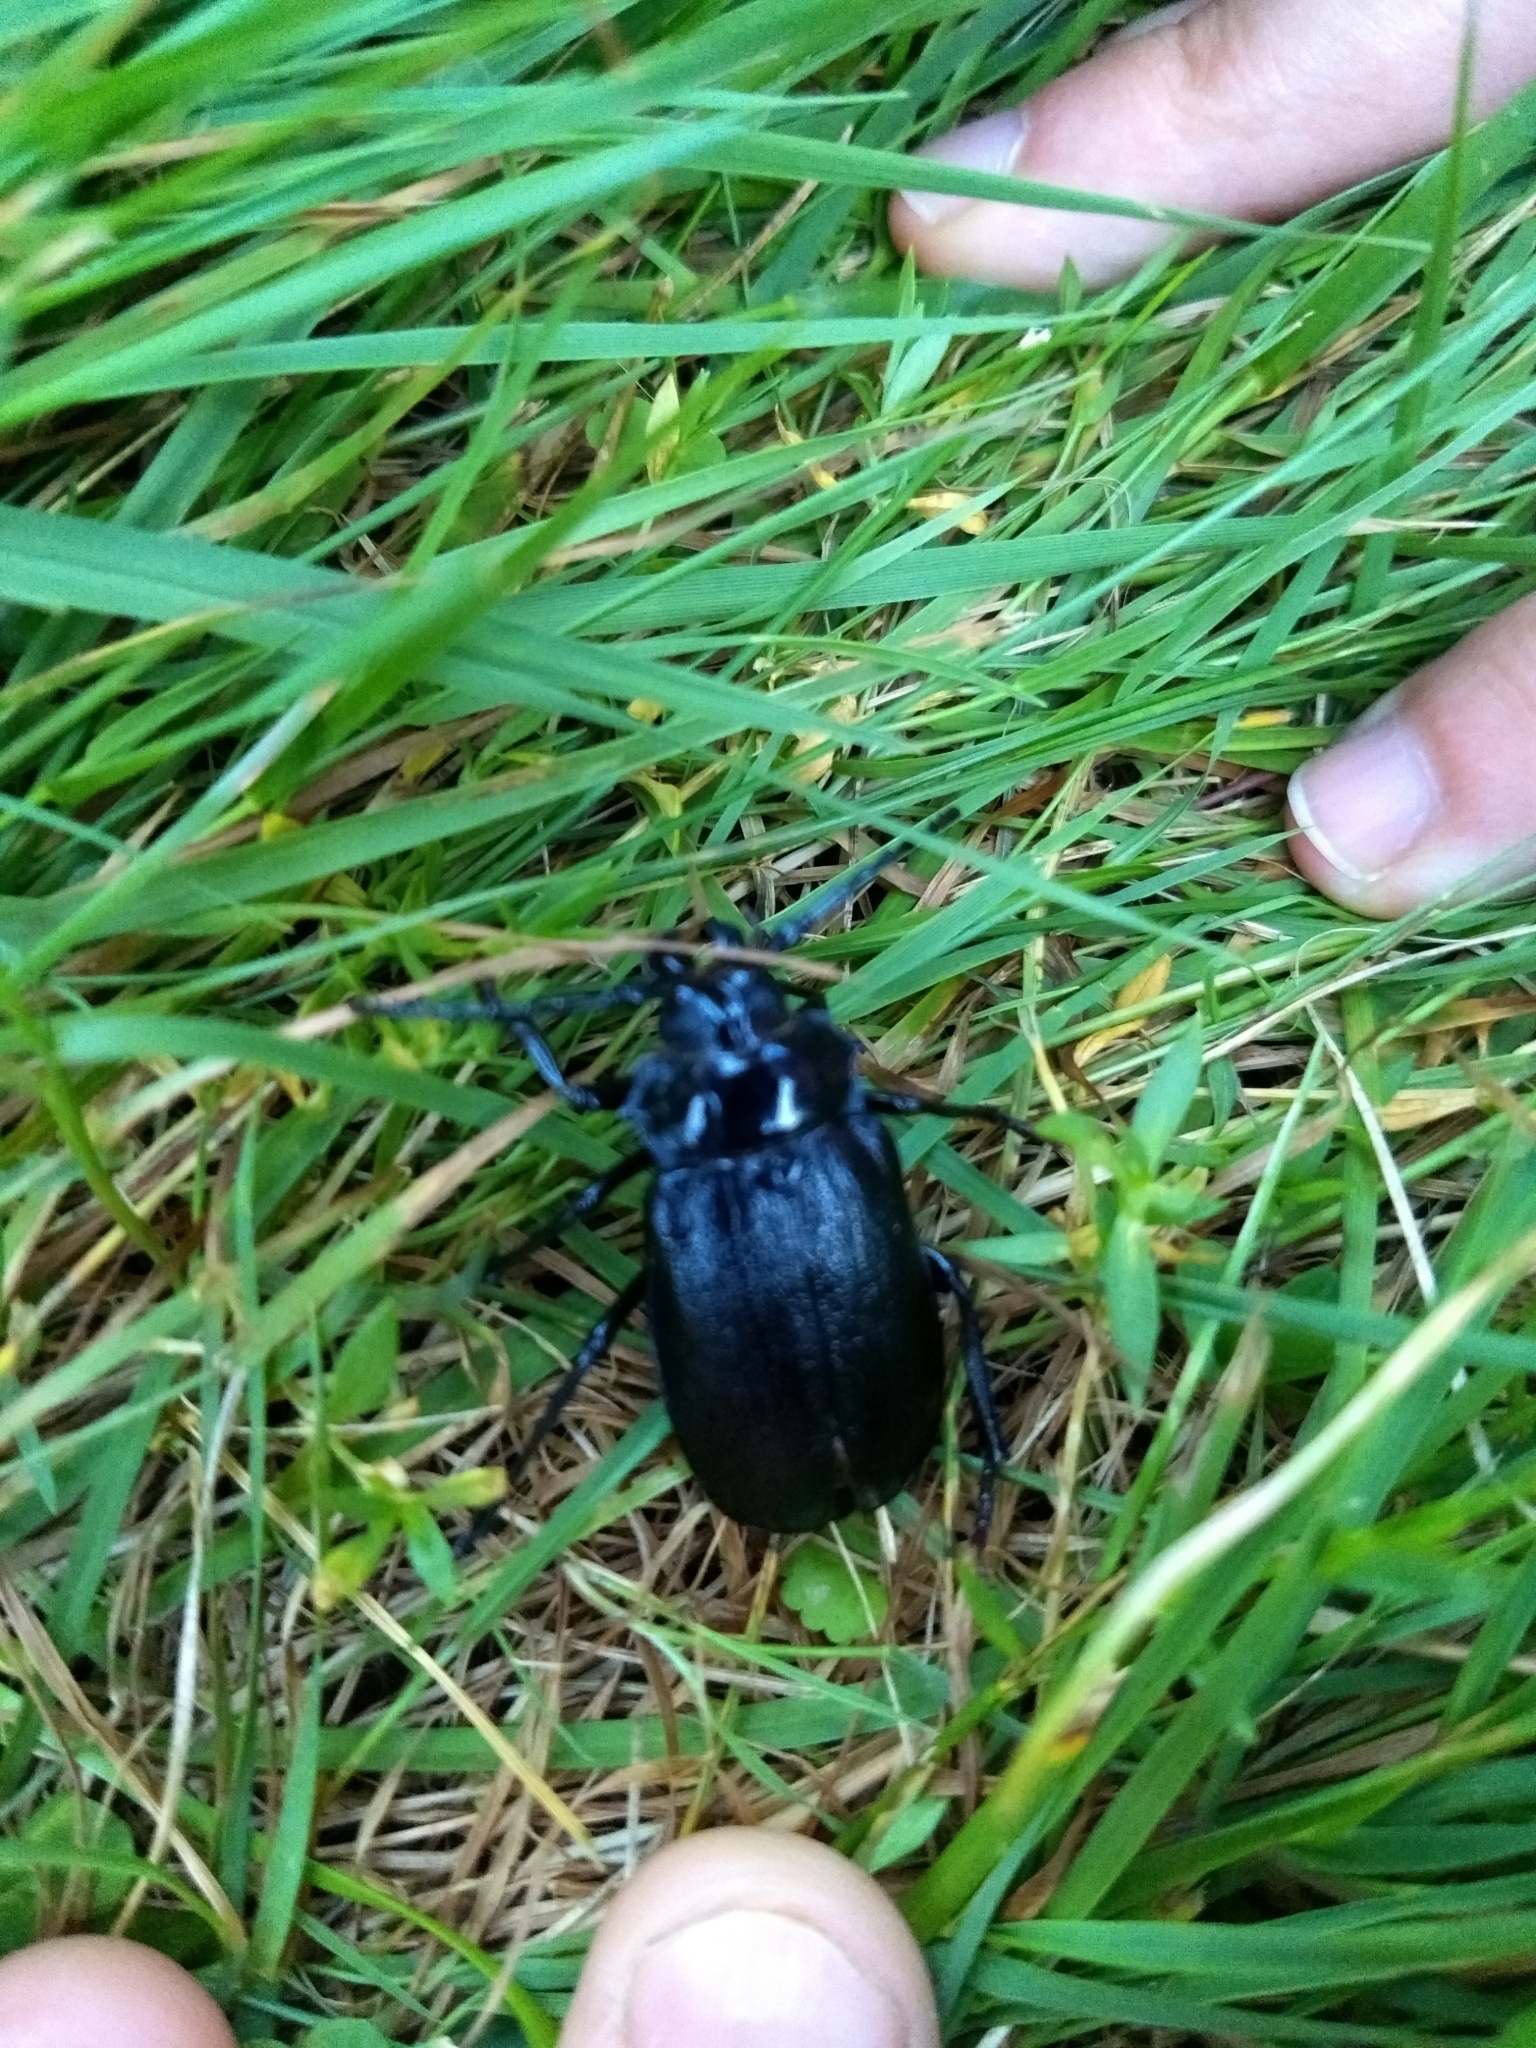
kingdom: Animalia
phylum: Arthropoda
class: Insecta
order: Coleoptera
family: Cerambycidae
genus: Prionus
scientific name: Prionus laticollis
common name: Broad necked prionus
